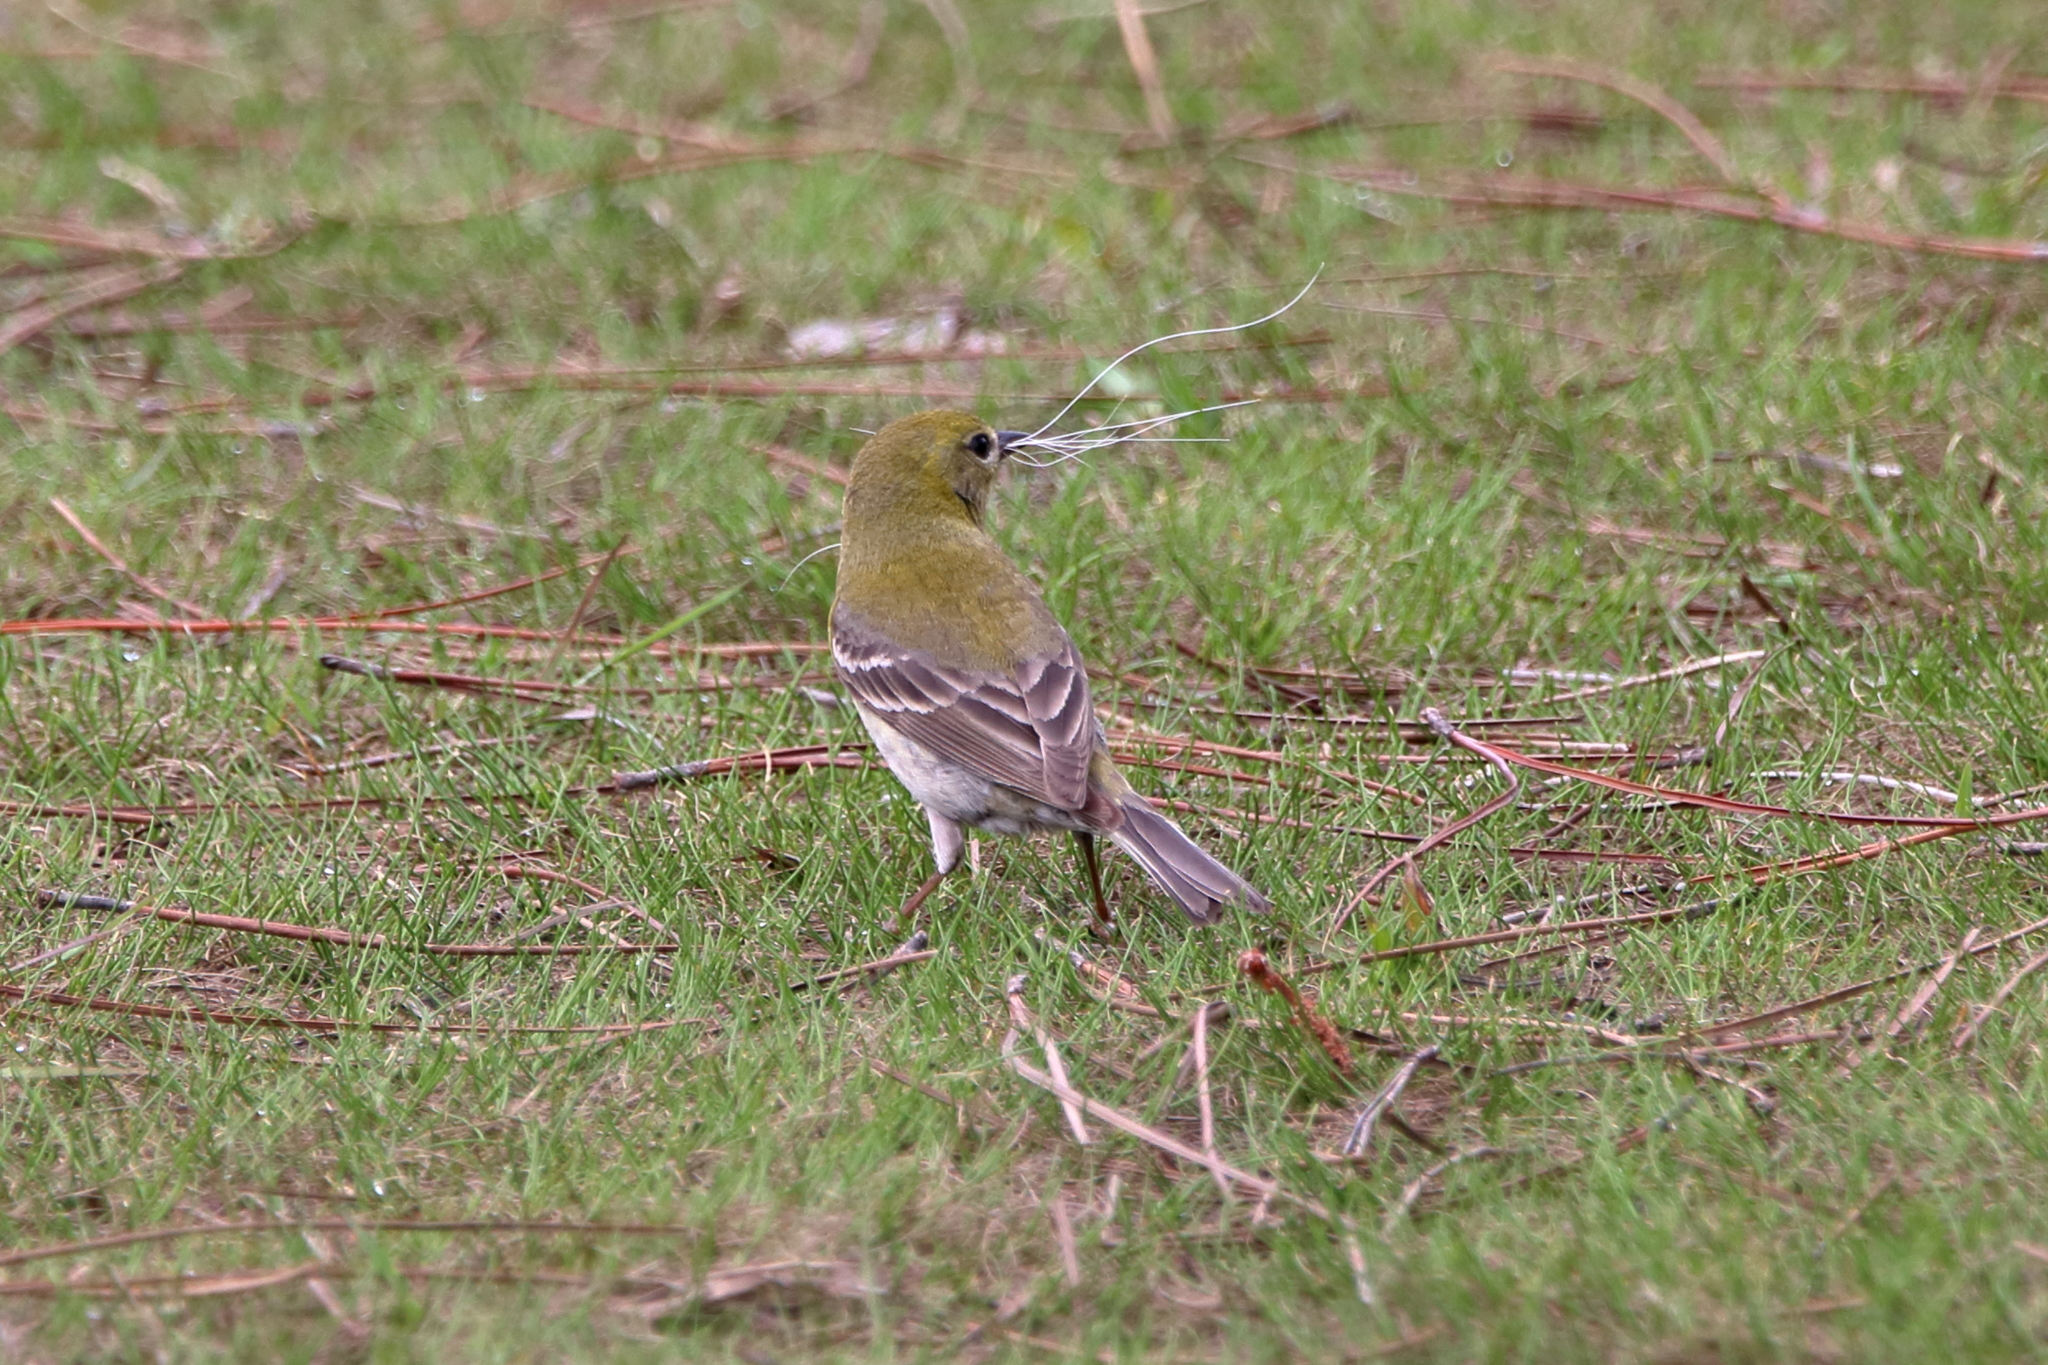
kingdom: Animalia
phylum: Chordata
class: Aves
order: Passeriformes
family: Parulidae
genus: Setophaga
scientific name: Setophaga pinus
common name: Pine warbler
